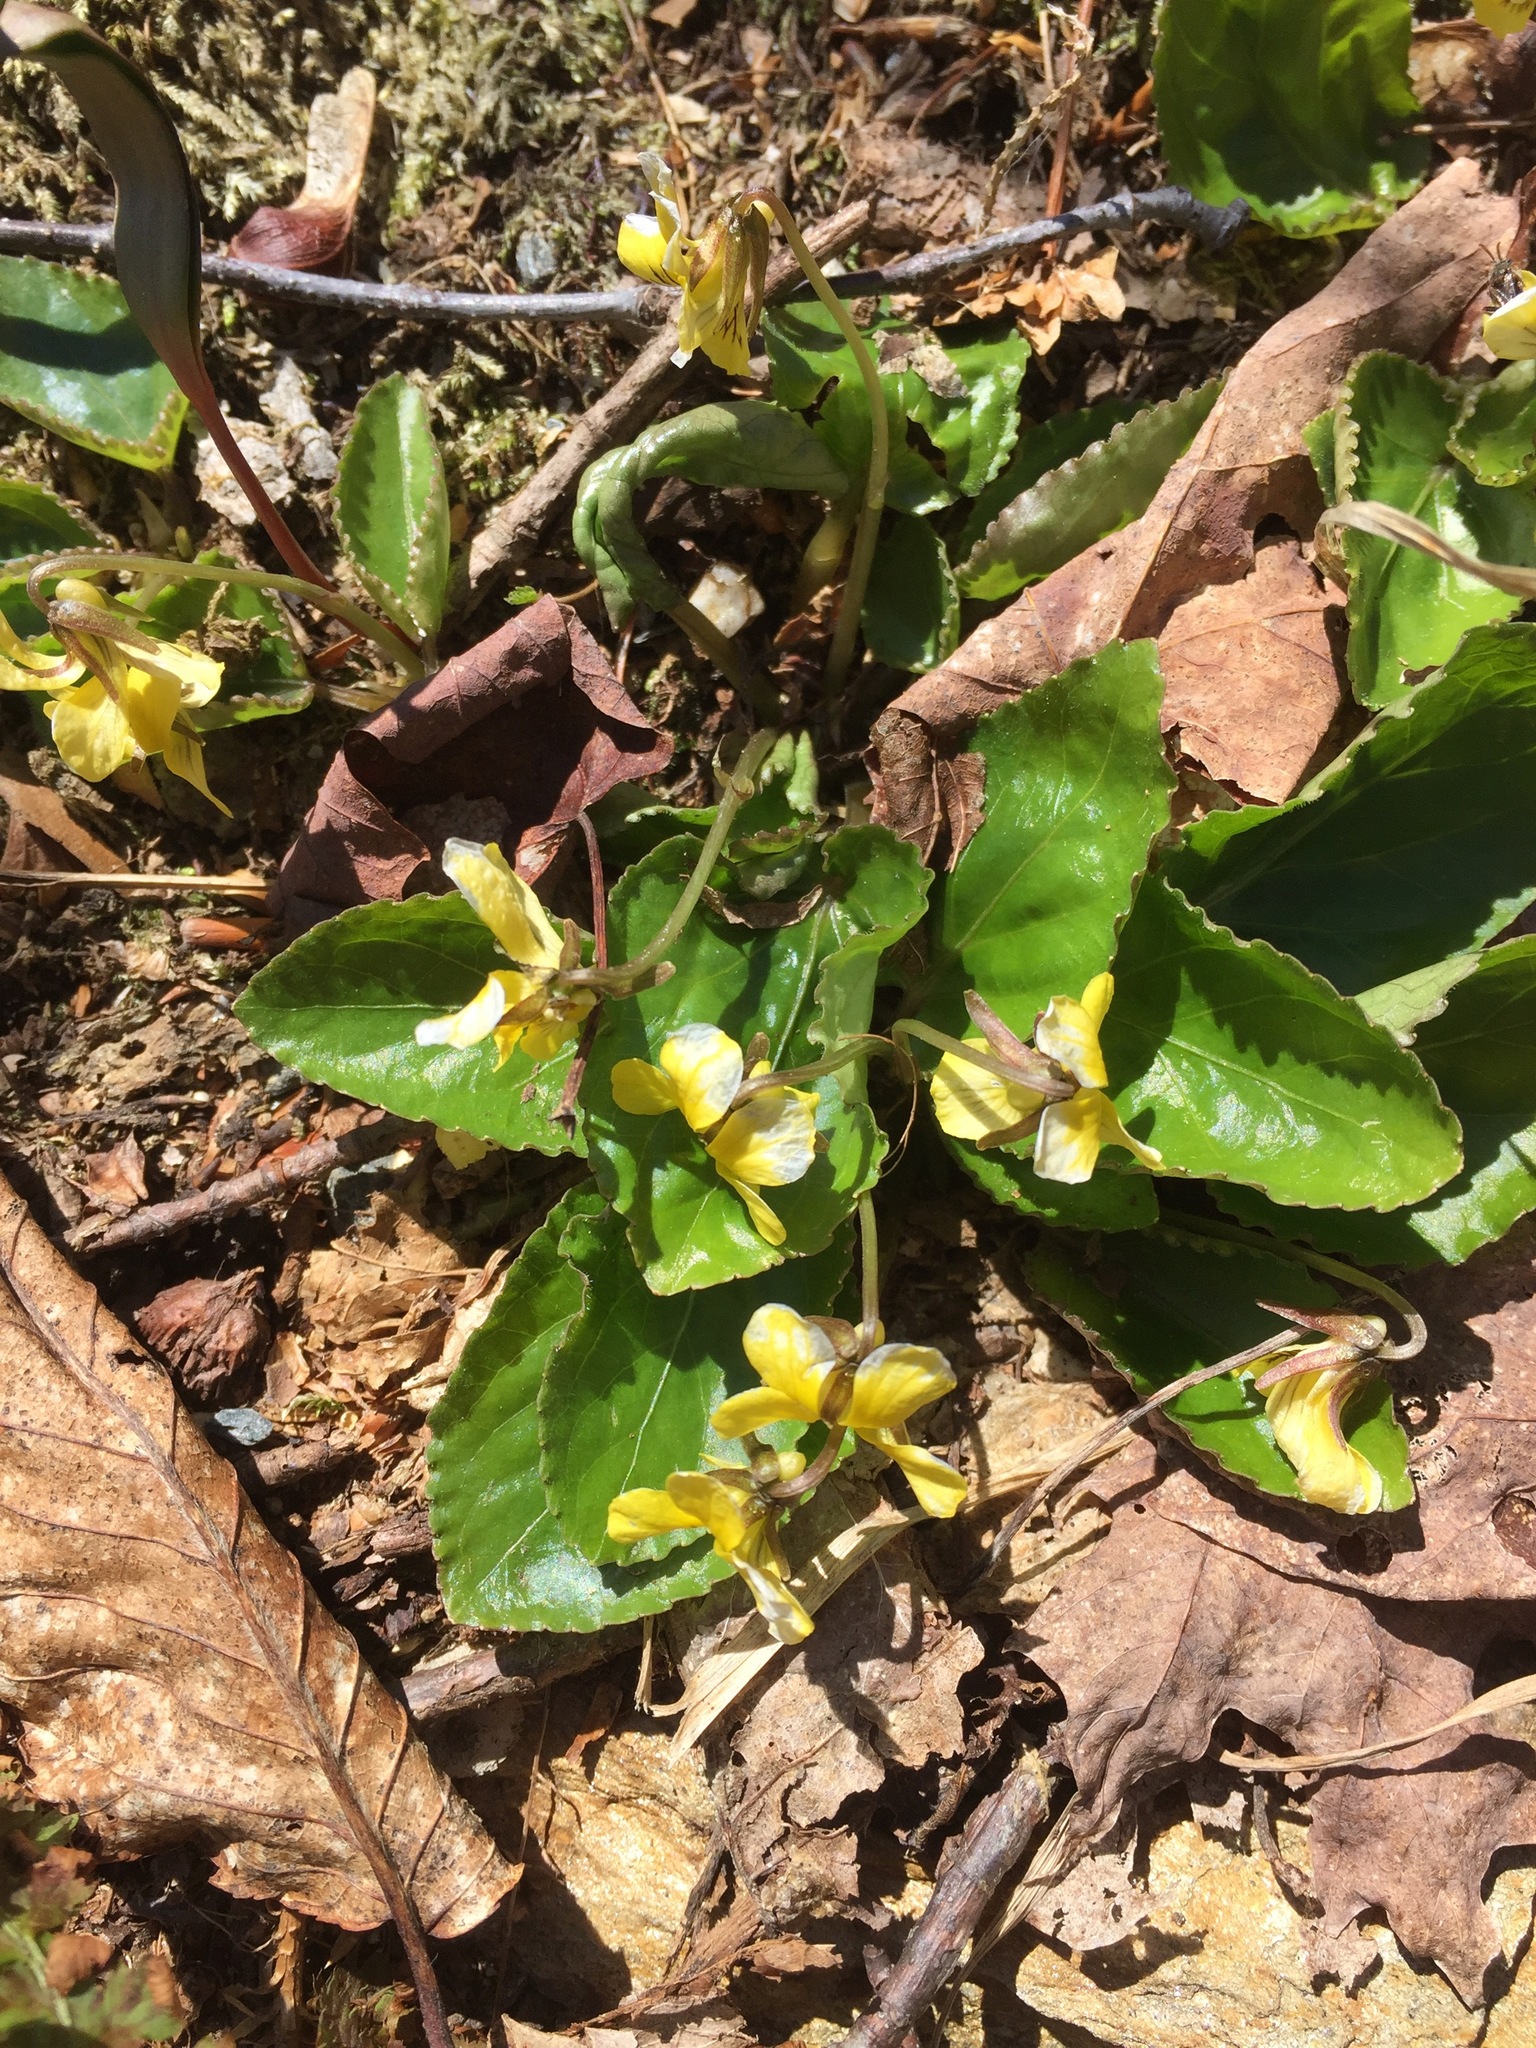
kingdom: Plantae
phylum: Tracheophyta
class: Magnoliopsida
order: Malpighiales
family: Violaceae
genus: Viola
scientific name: Viola rotundifolia
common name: Early yellow violet
